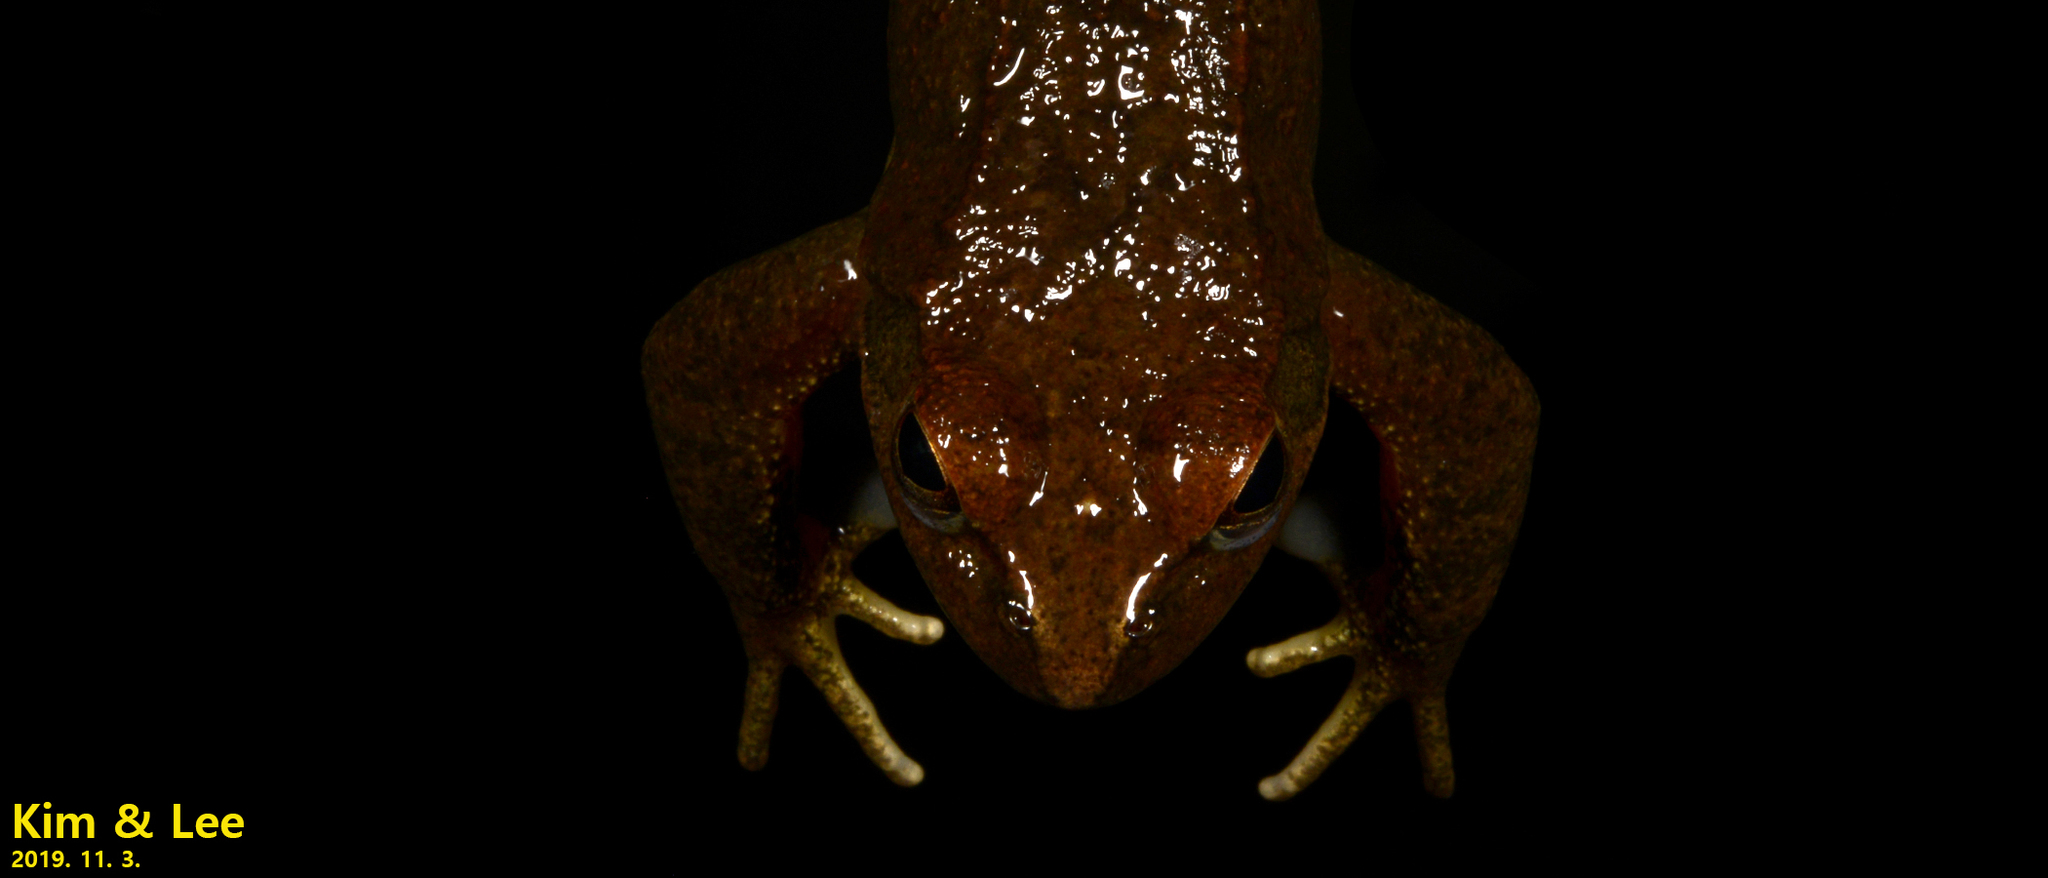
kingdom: Animalia
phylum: Chordata
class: Amphibia
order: Anura
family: Ranidae
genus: Rana
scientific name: Rana huanrenensis
